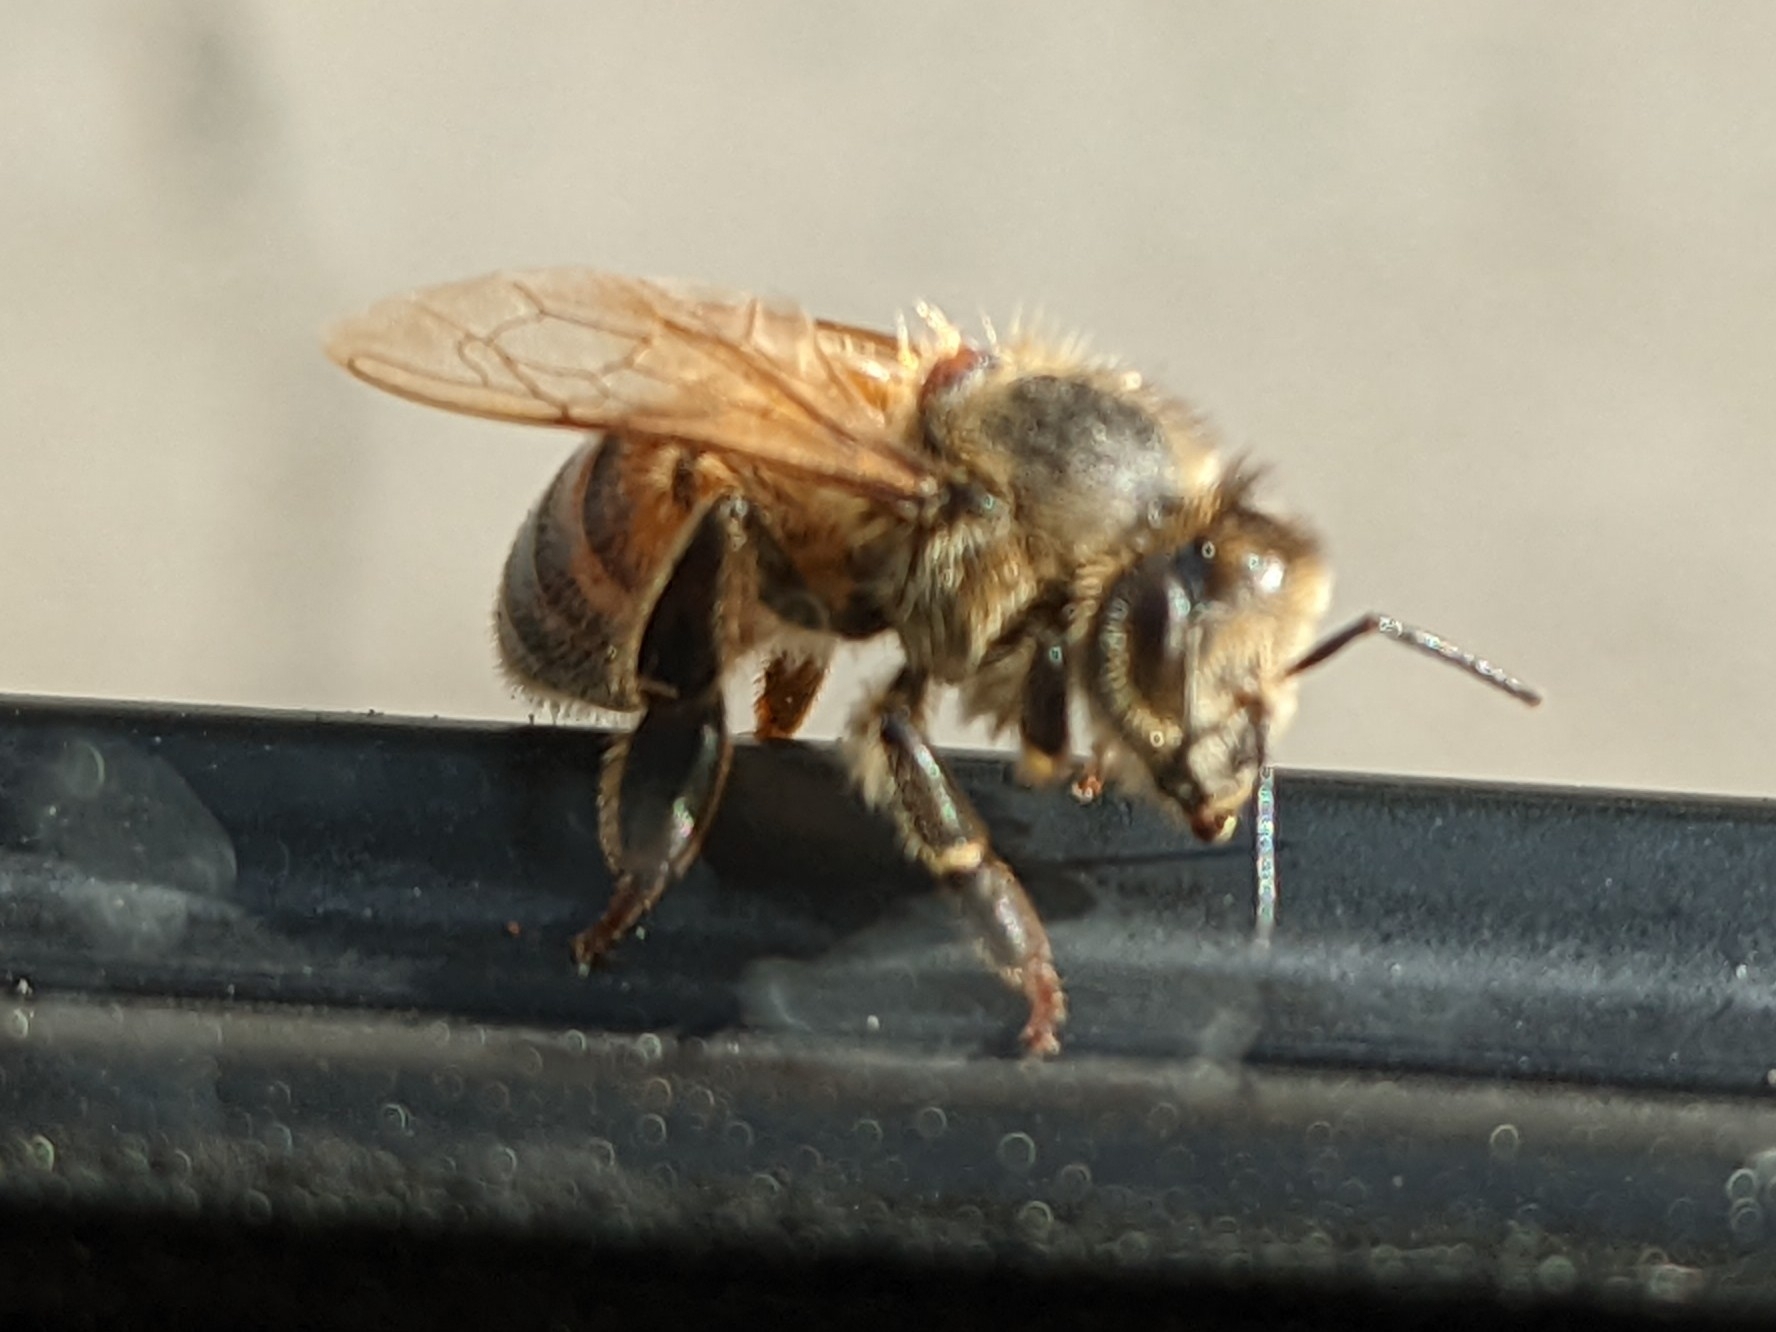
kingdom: Animalia
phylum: Arthropoda
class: Insecta
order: Hymenoptera
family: Apidae
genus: Apis
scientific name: Apis mellifera
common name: Honey bee
